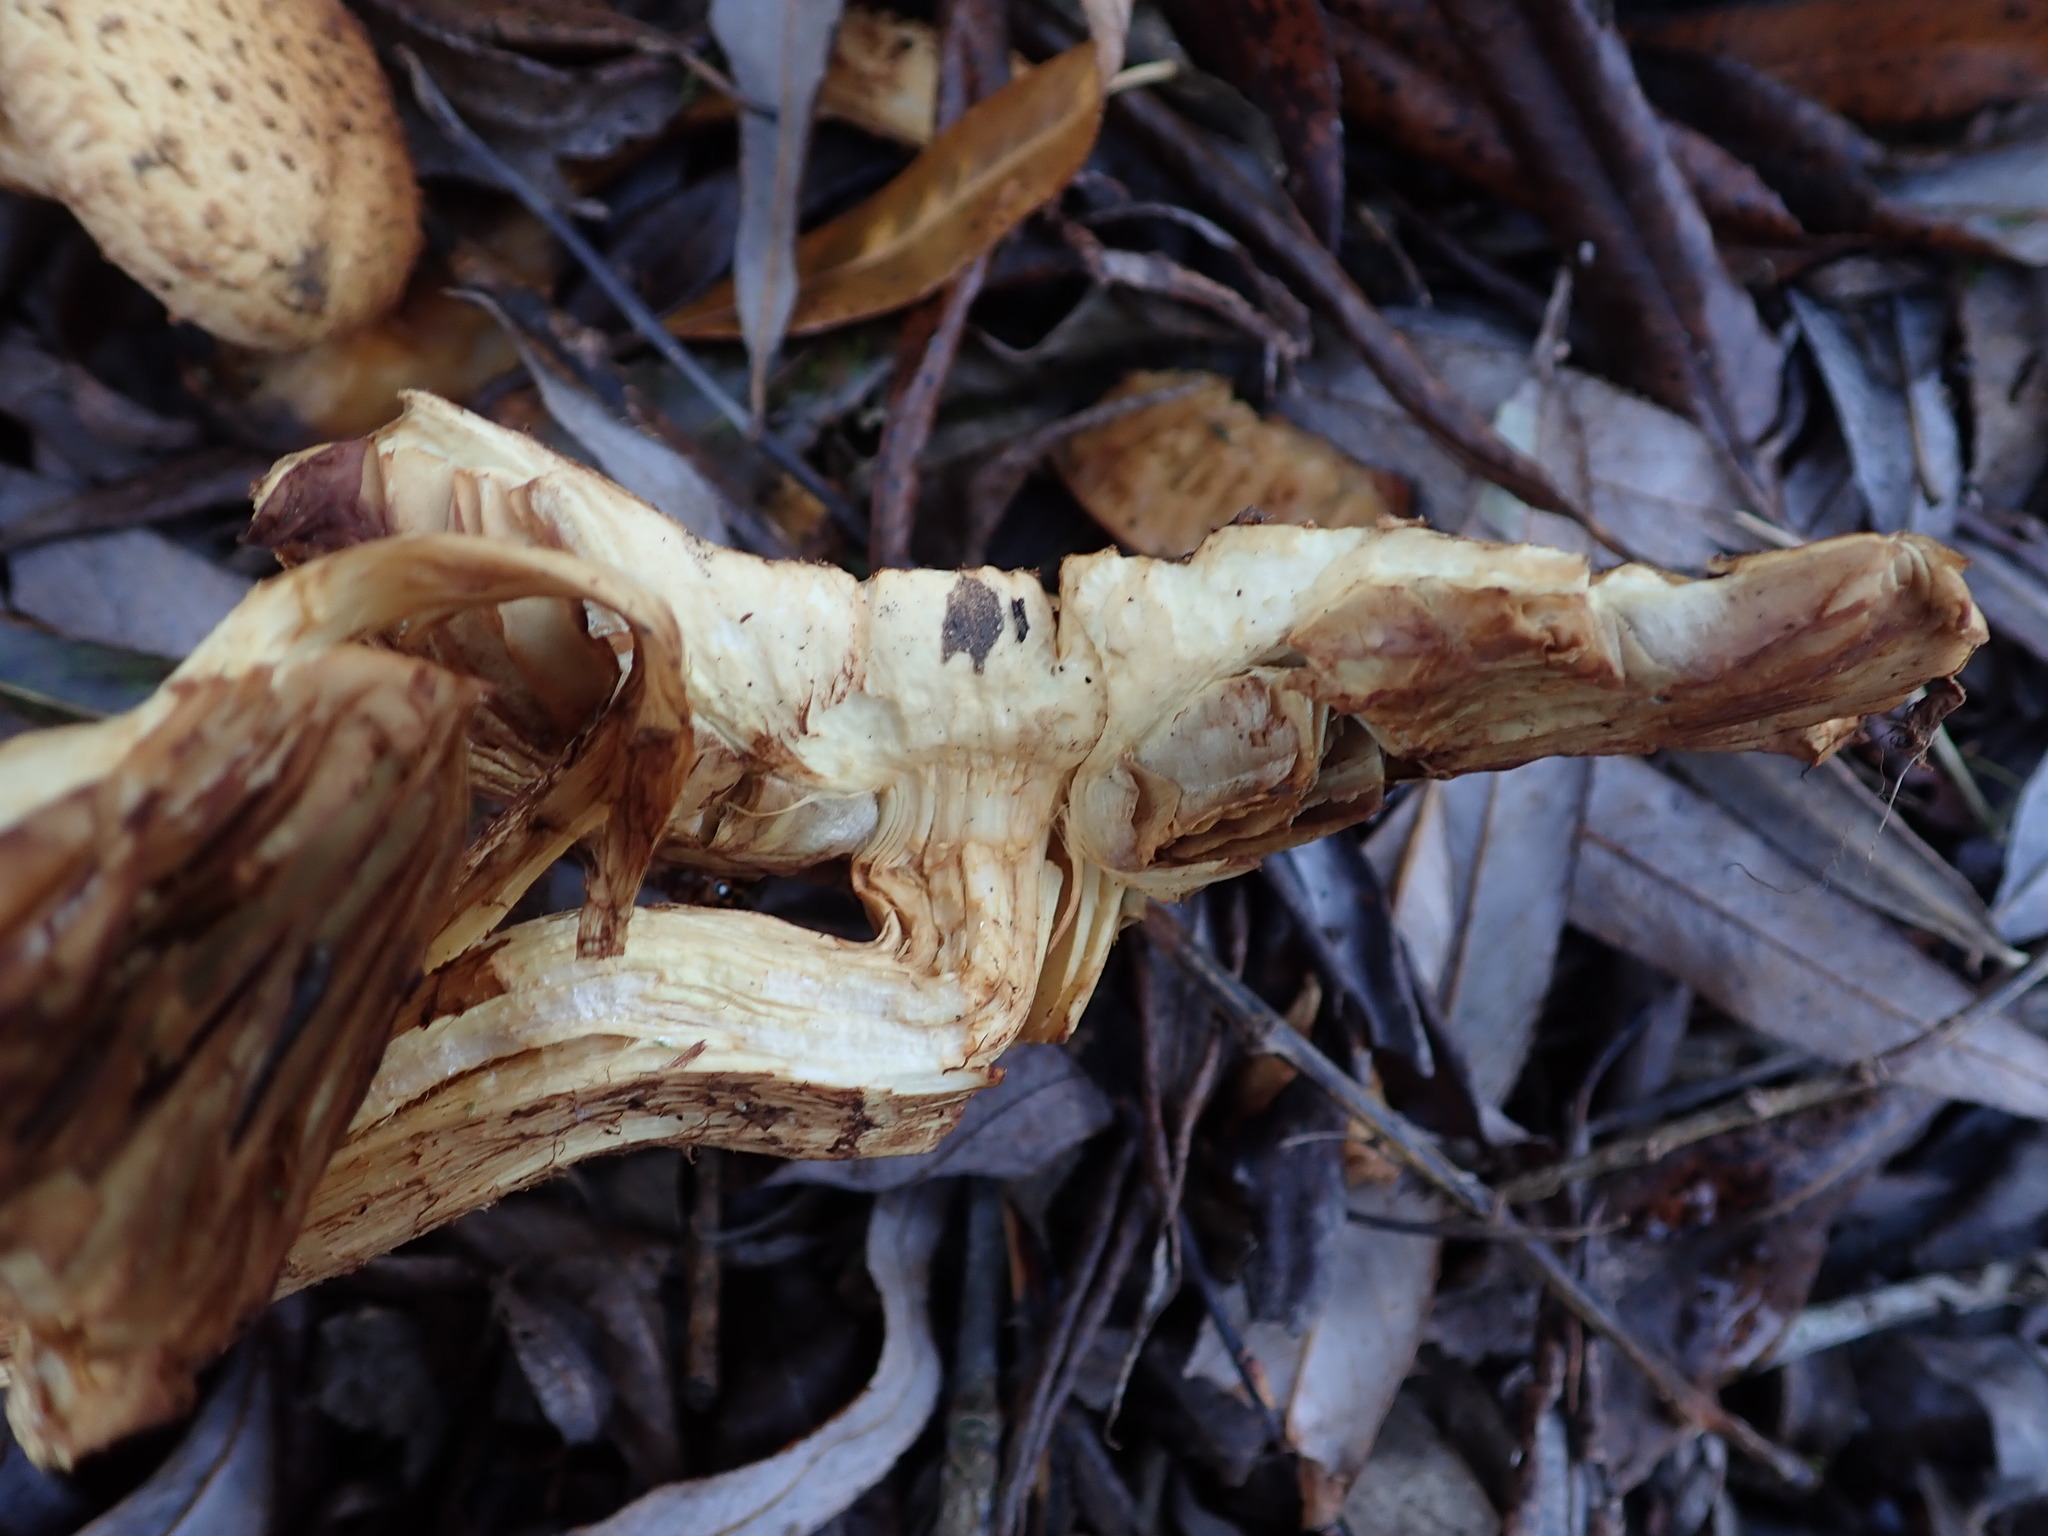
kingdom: Fungi
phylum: Basidiomycota
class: Agaricomycetes
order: Agaricales
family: Strophariaceae
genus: Pholiota
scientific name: Pholiota squarrosa
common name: Shaggy pholiota
